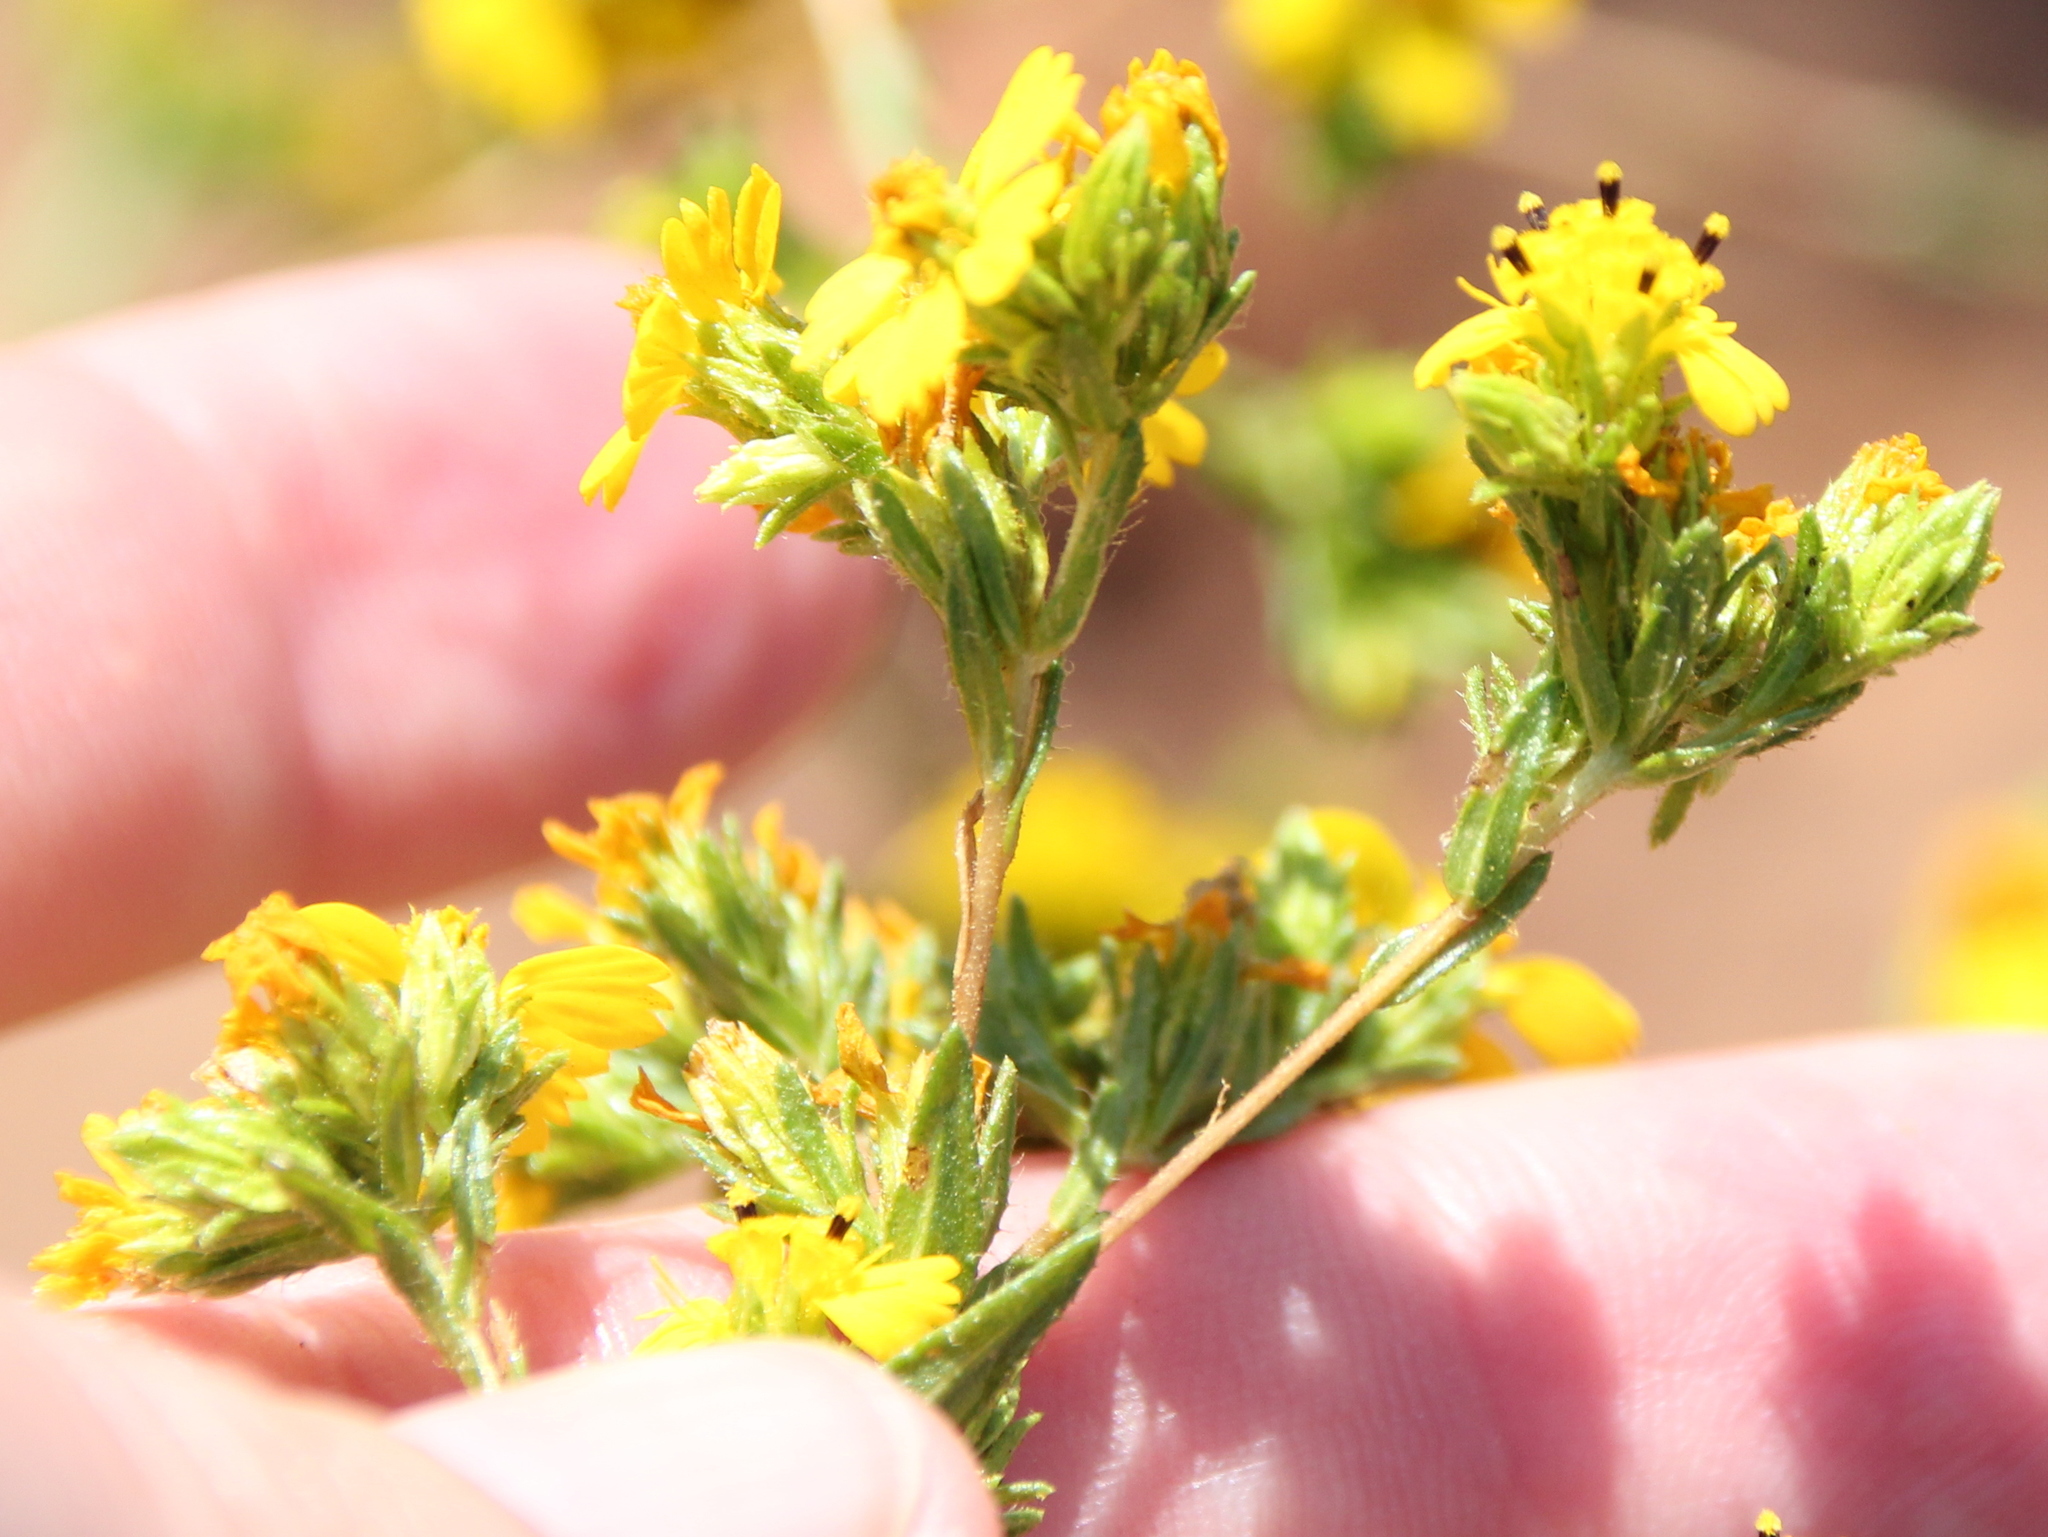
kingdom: Plantae
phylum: Tracheophyta
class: Magnoliopsida
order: Asterales
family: Asteraceae
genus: Deinandra
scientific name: Deinandra fasciculata
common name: Clustered tarweed
